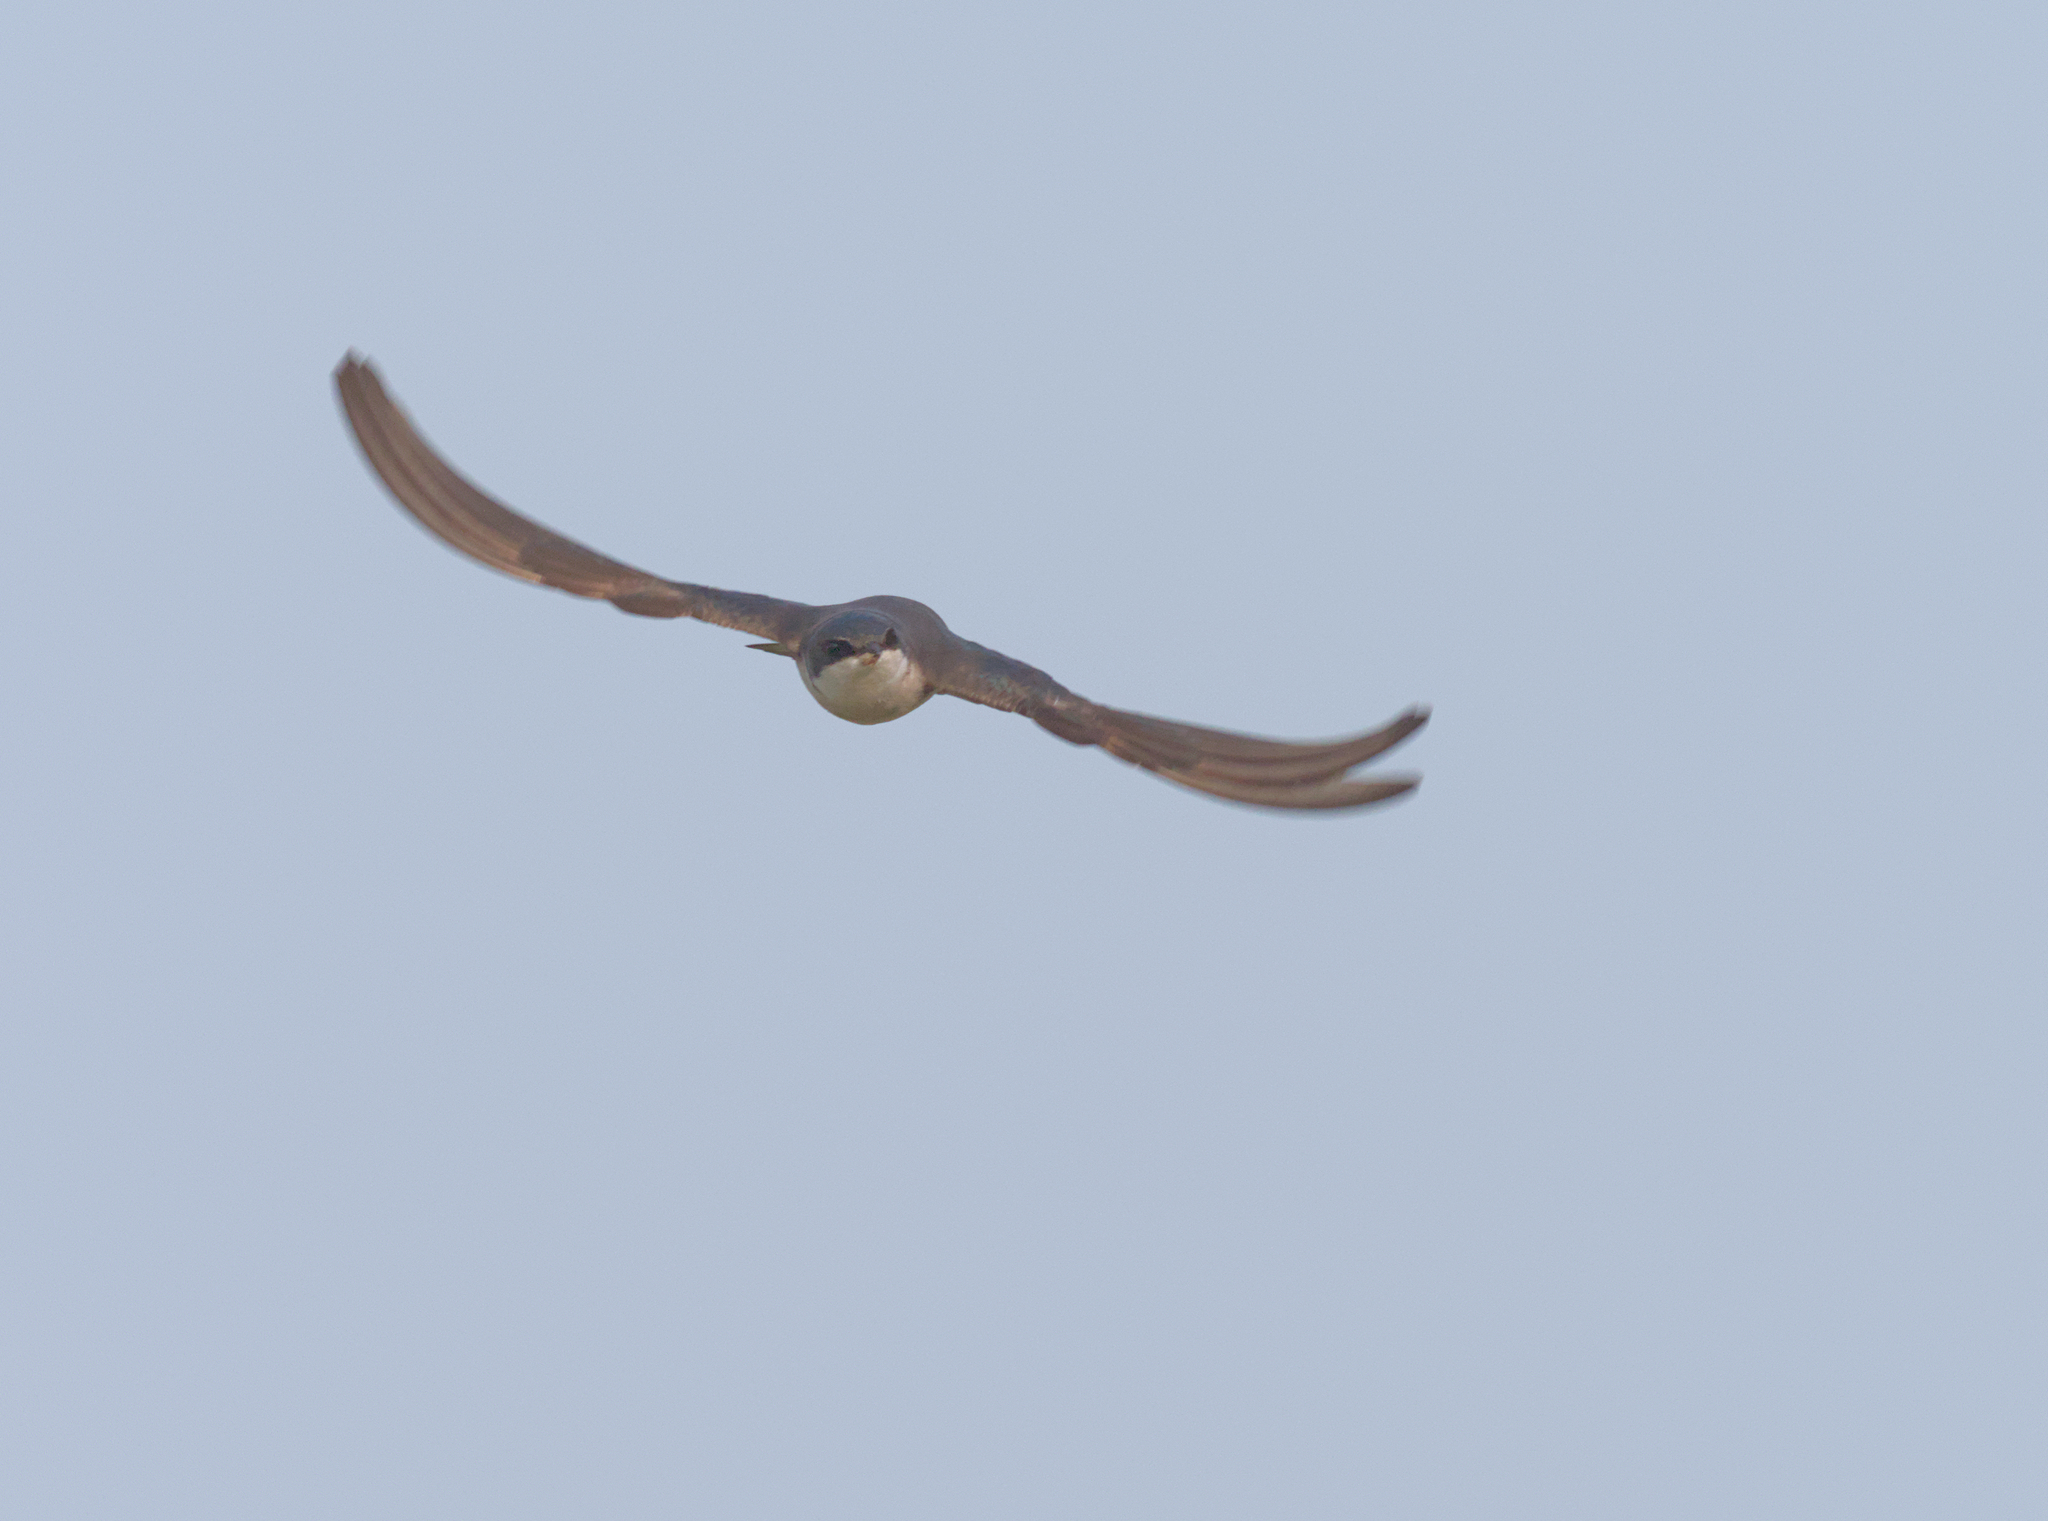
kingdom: Animalia
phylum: Chordata
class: Aves
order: Passeriformes
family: Hirundinidae
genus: Tachycineta
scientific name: Tachycineta bicolor
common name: Tree swallow
